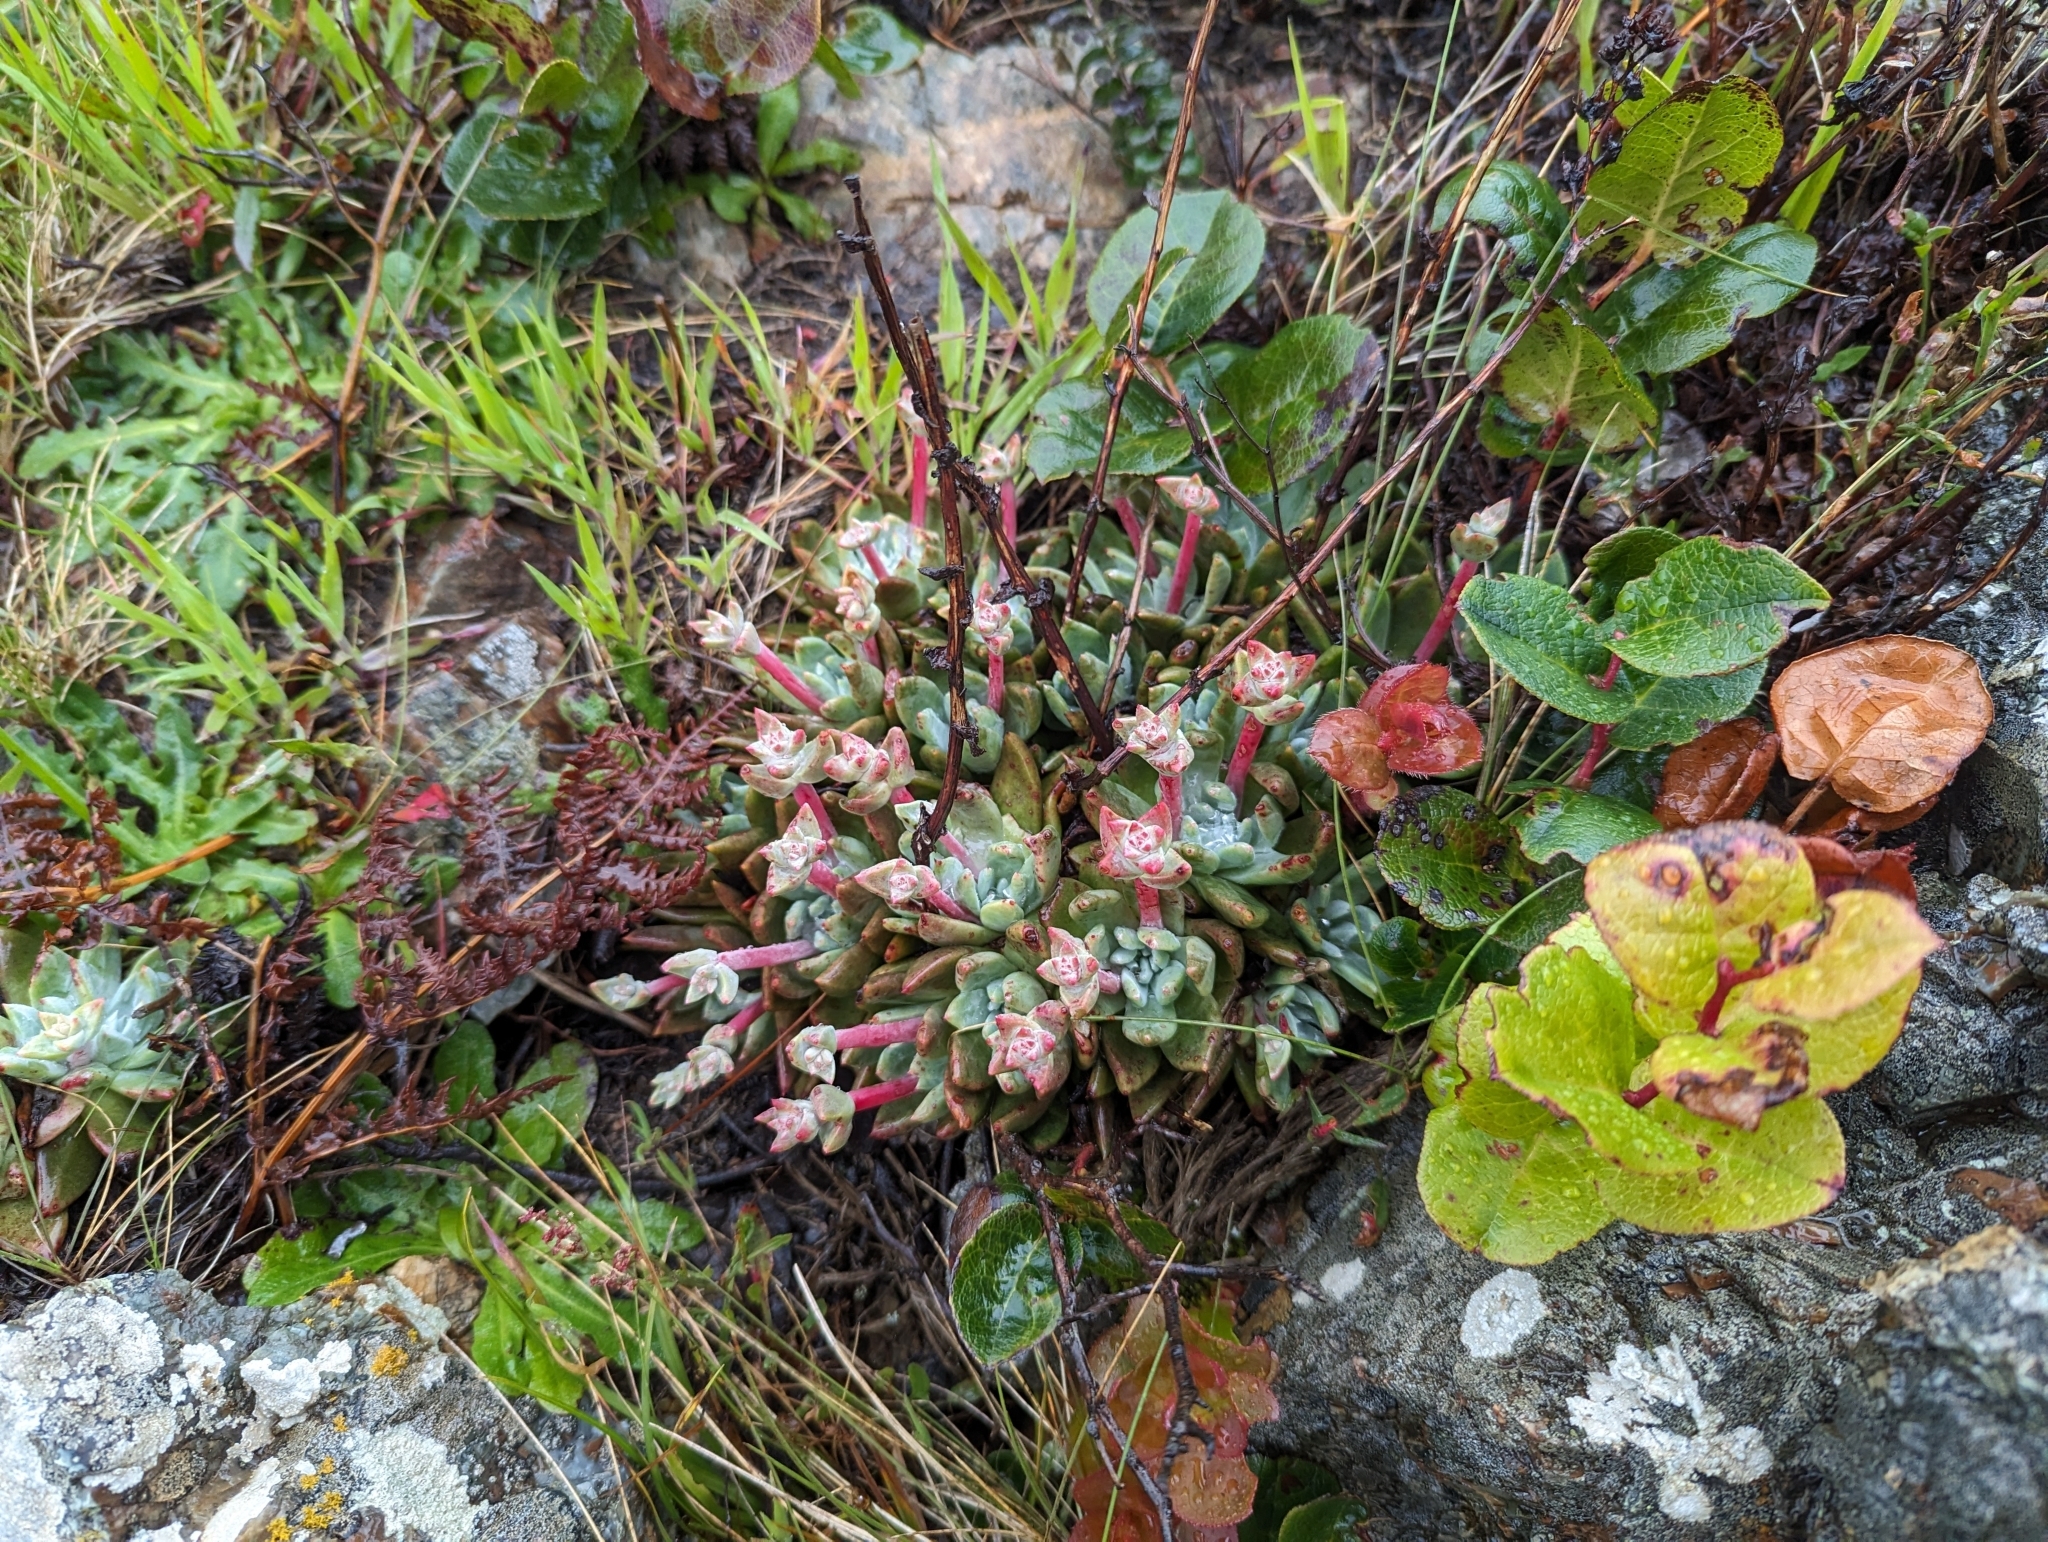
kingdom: Plantae
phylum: Tracheophyta
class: Magnoliopsida
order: Saxifragales
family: Crassulaceae
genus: Dudleya
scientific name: Dudleya farinosa
